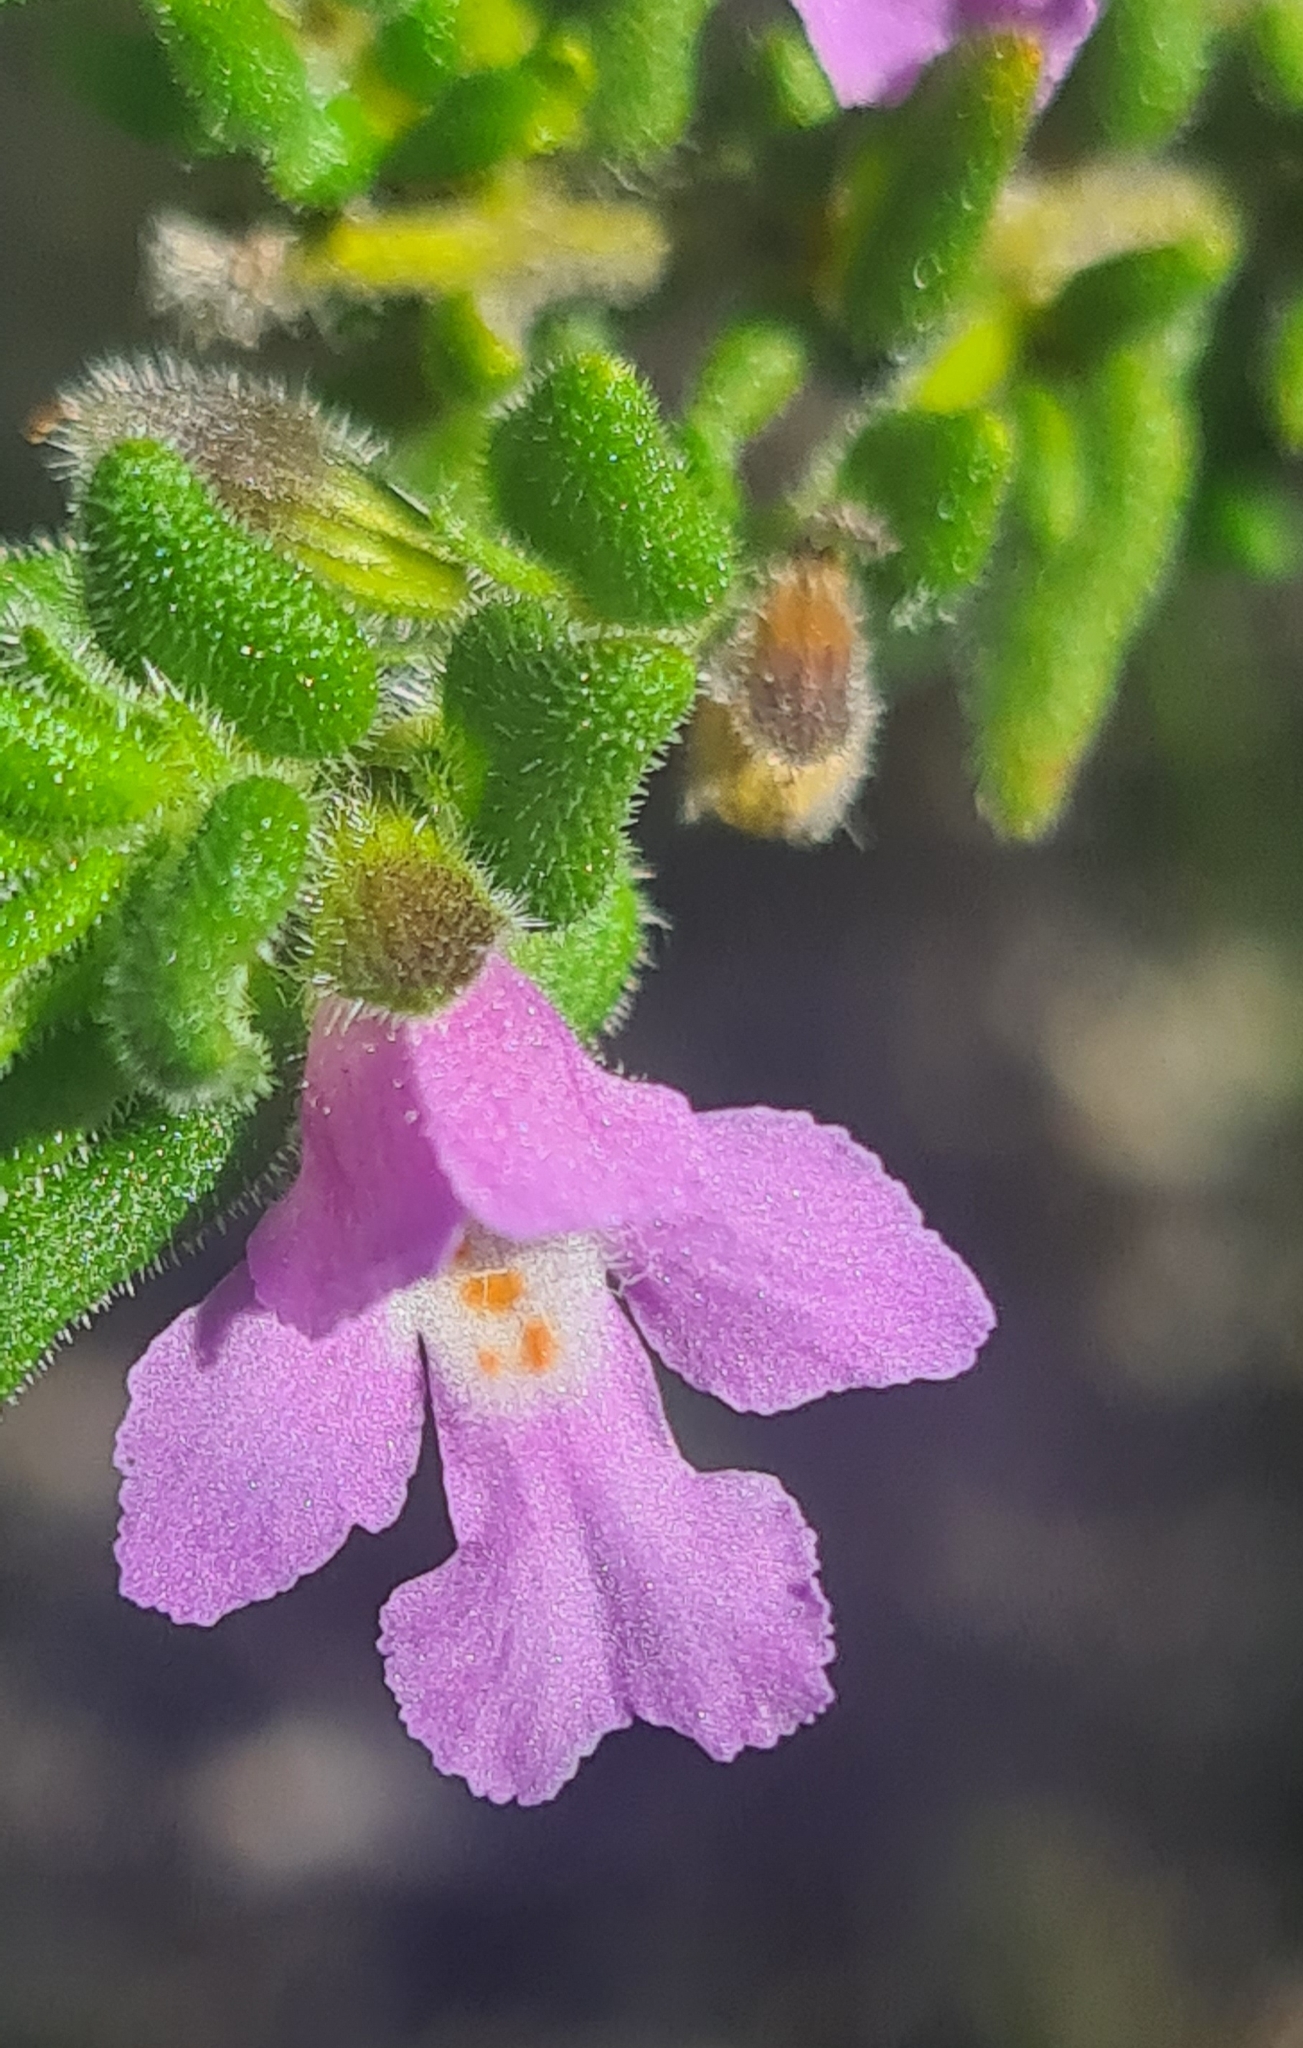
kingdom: Plantae
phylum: Tracheophyta
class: Magnoliopsida
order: Lamiales
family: Lamiaceae
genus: Prostanthera
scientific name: Prostanthera densa
